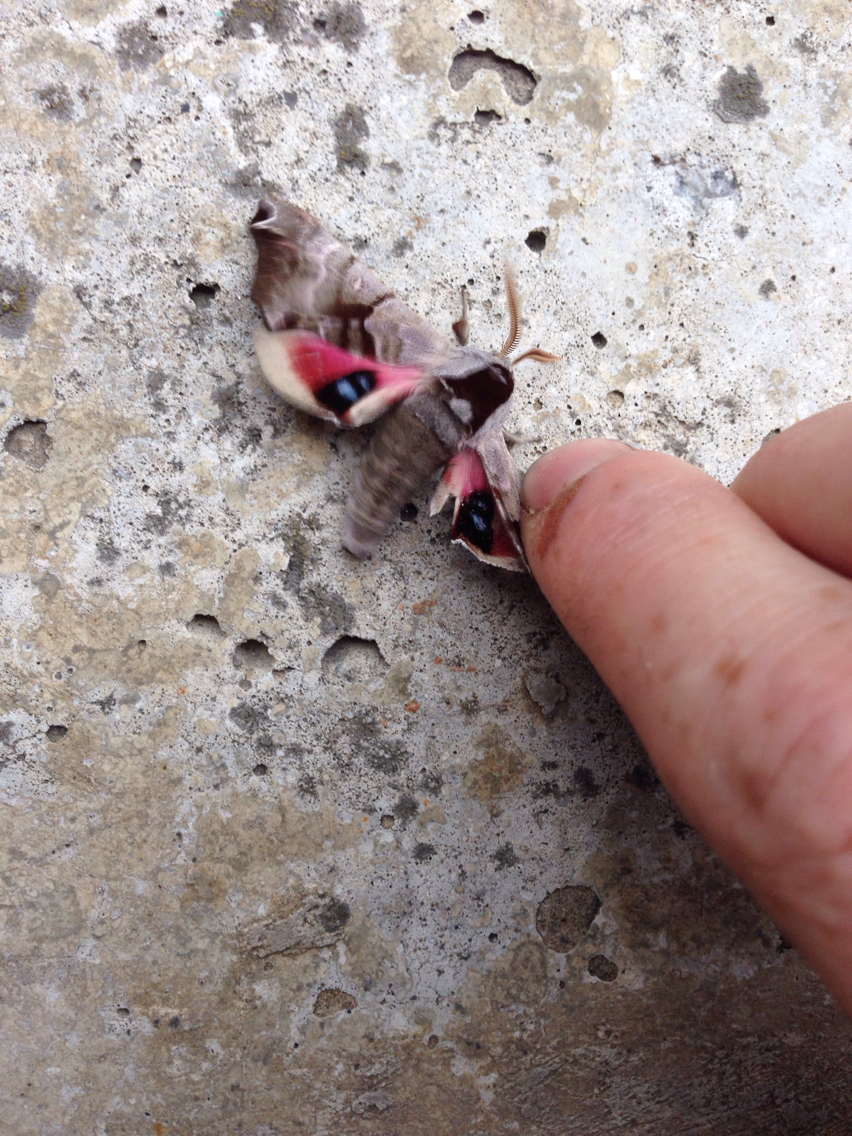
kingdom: Animalia
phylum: Arthropoda
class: Insecta
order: Lepidoptera
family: Sphingidae
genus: Smerinthus
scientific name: Smerinthus jamaicensis
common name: Twin spotted sphinx
